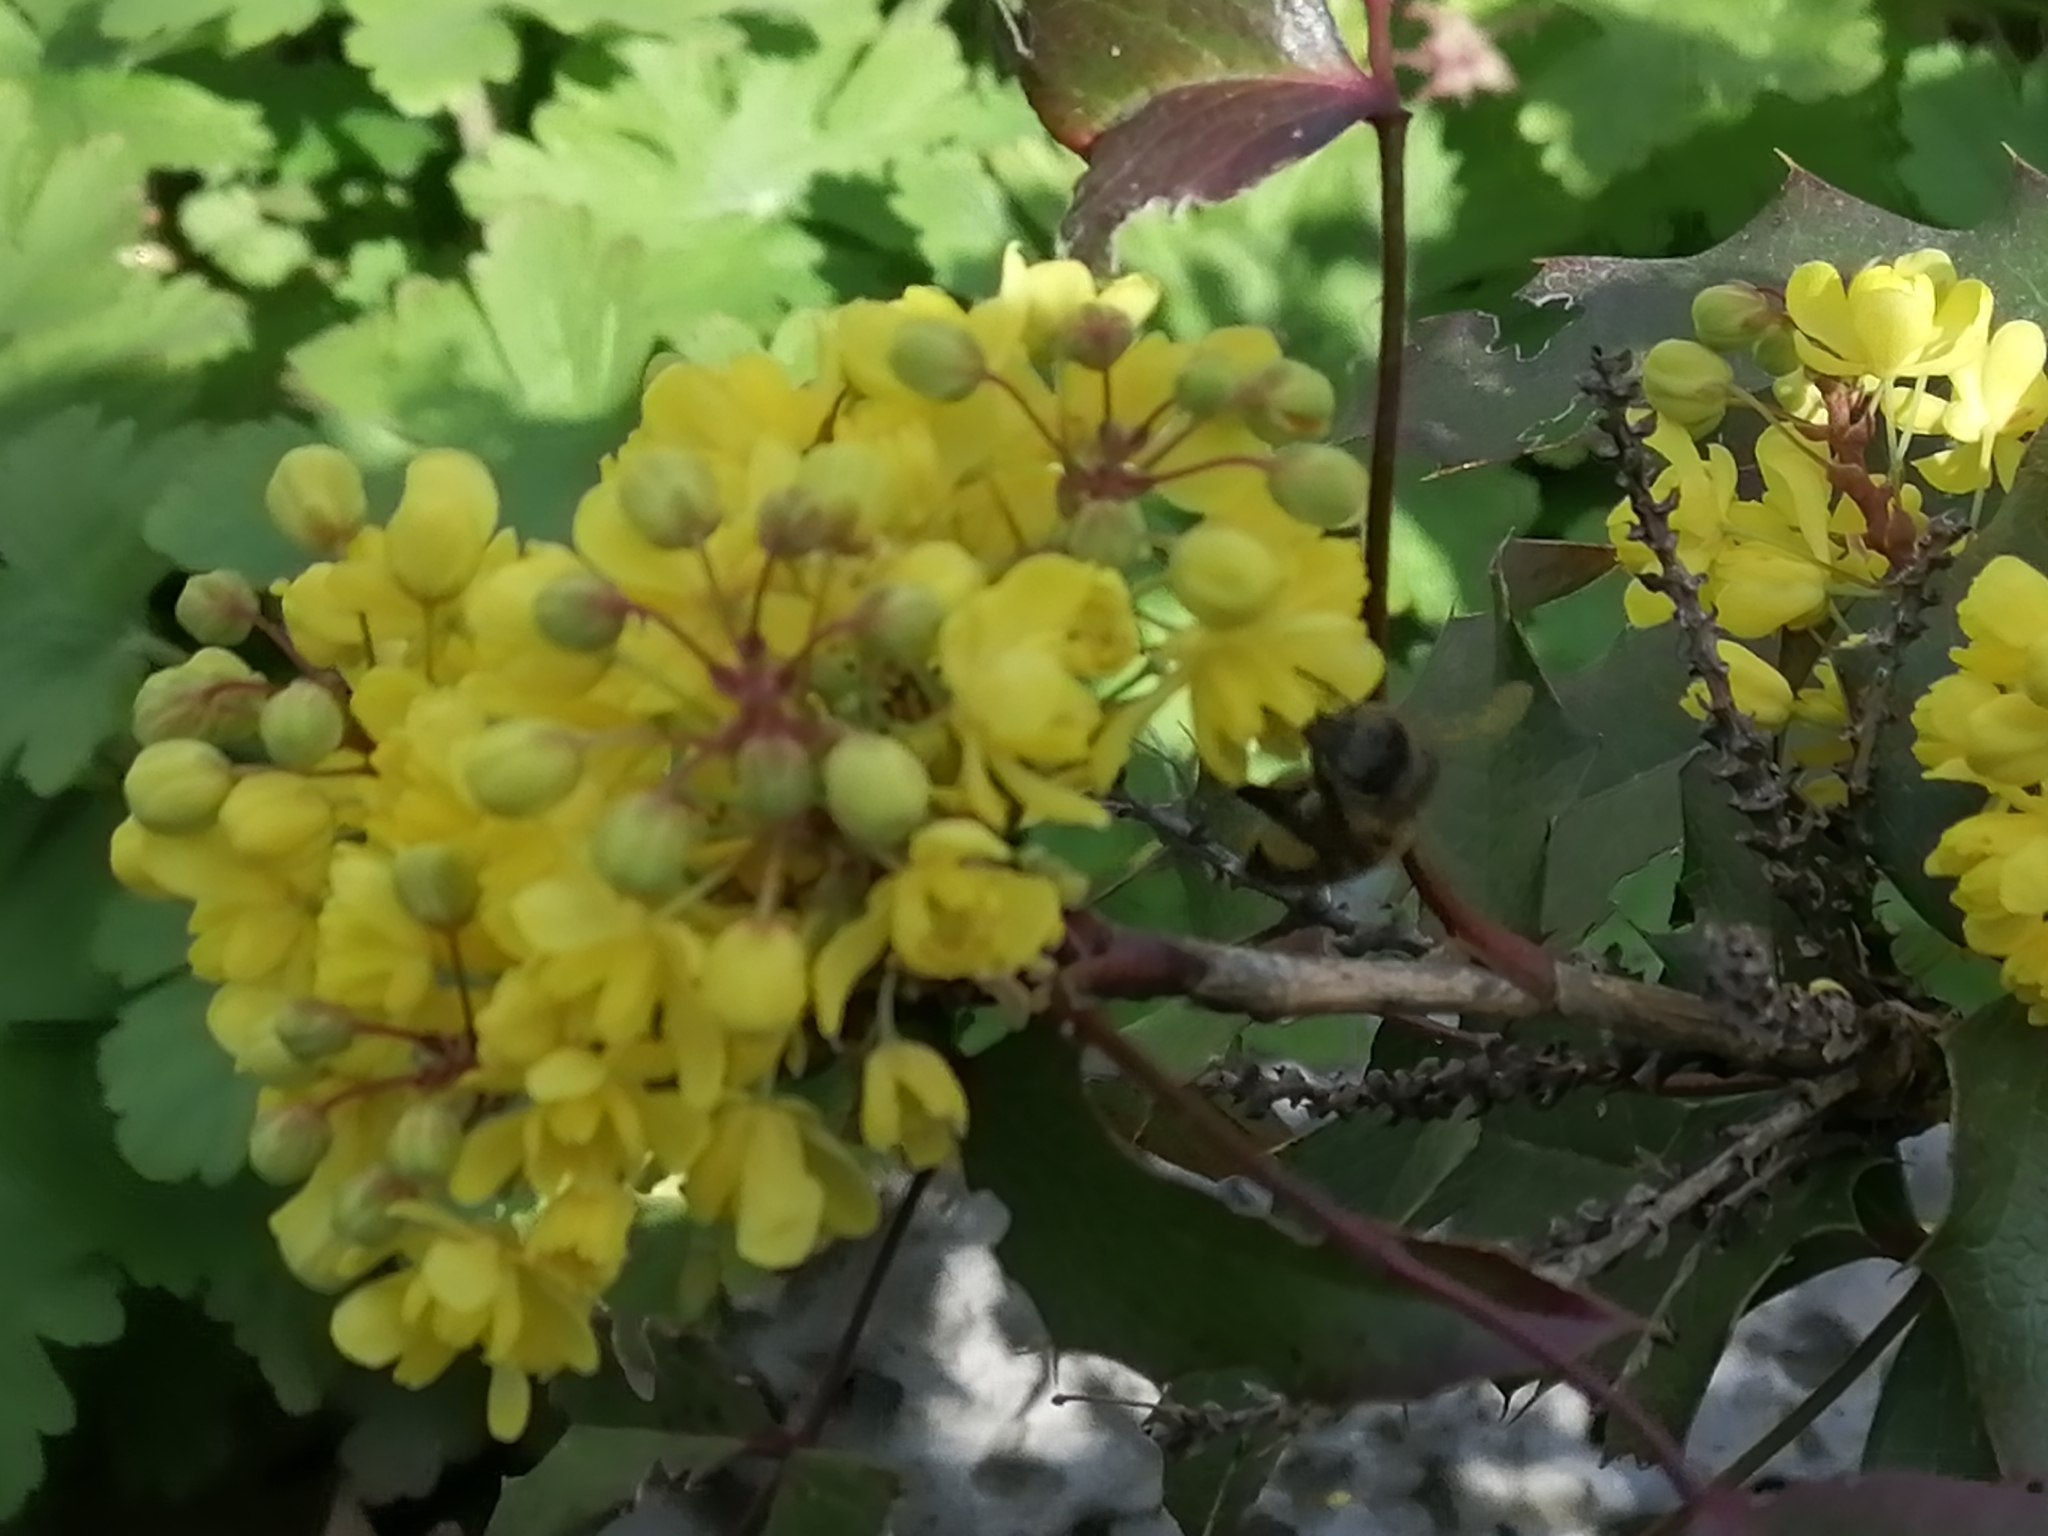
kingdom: Animalia
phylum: Arthropoda
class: Insecta
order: Hymenoptera
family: Apidae
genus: Apis
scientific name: Apis mellifera
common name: Honey bee
